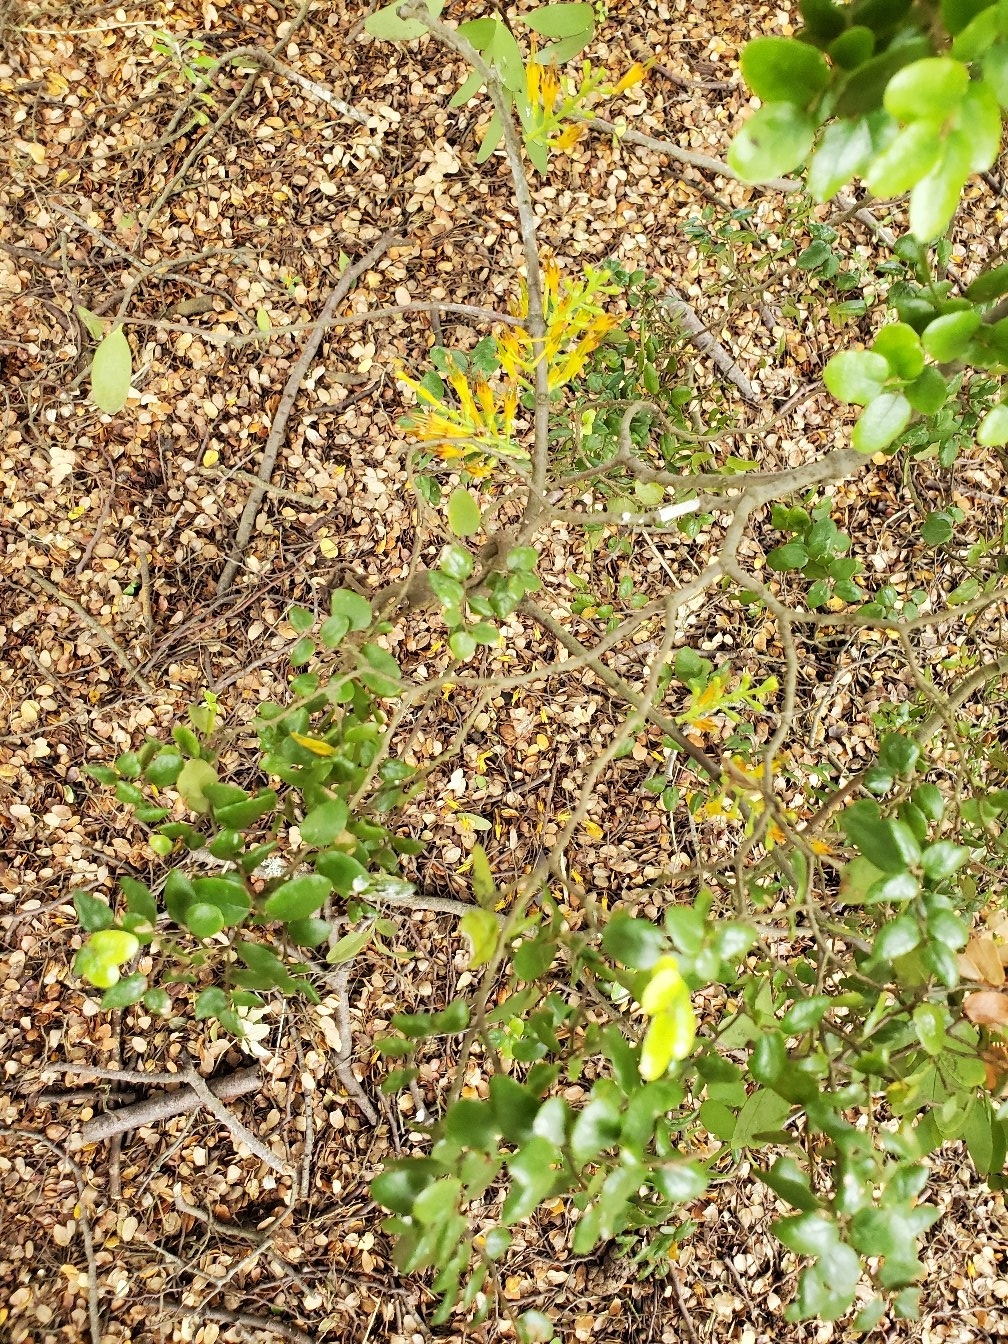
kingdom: Plantae
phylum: Tracheophyta
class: Magnoliopsida
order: Santalales
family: Loranthaceae
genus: Alepis
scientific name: Alepis flavida
